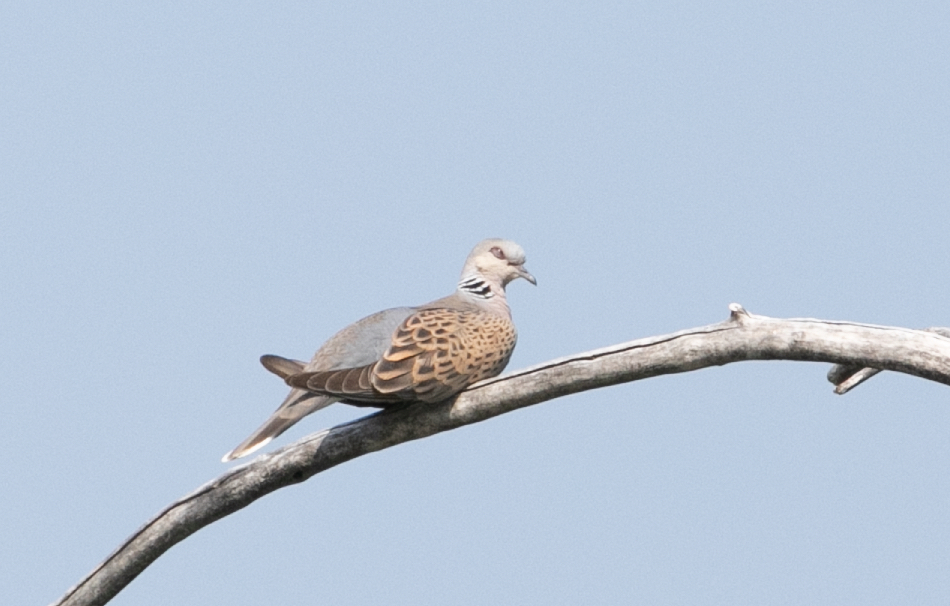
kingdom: Animalia
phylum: Chordata
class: Aves
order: Columbiformes
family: Columbidae
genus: Streptopelia
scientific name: Streptopelia turtur
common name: European turtle dove
